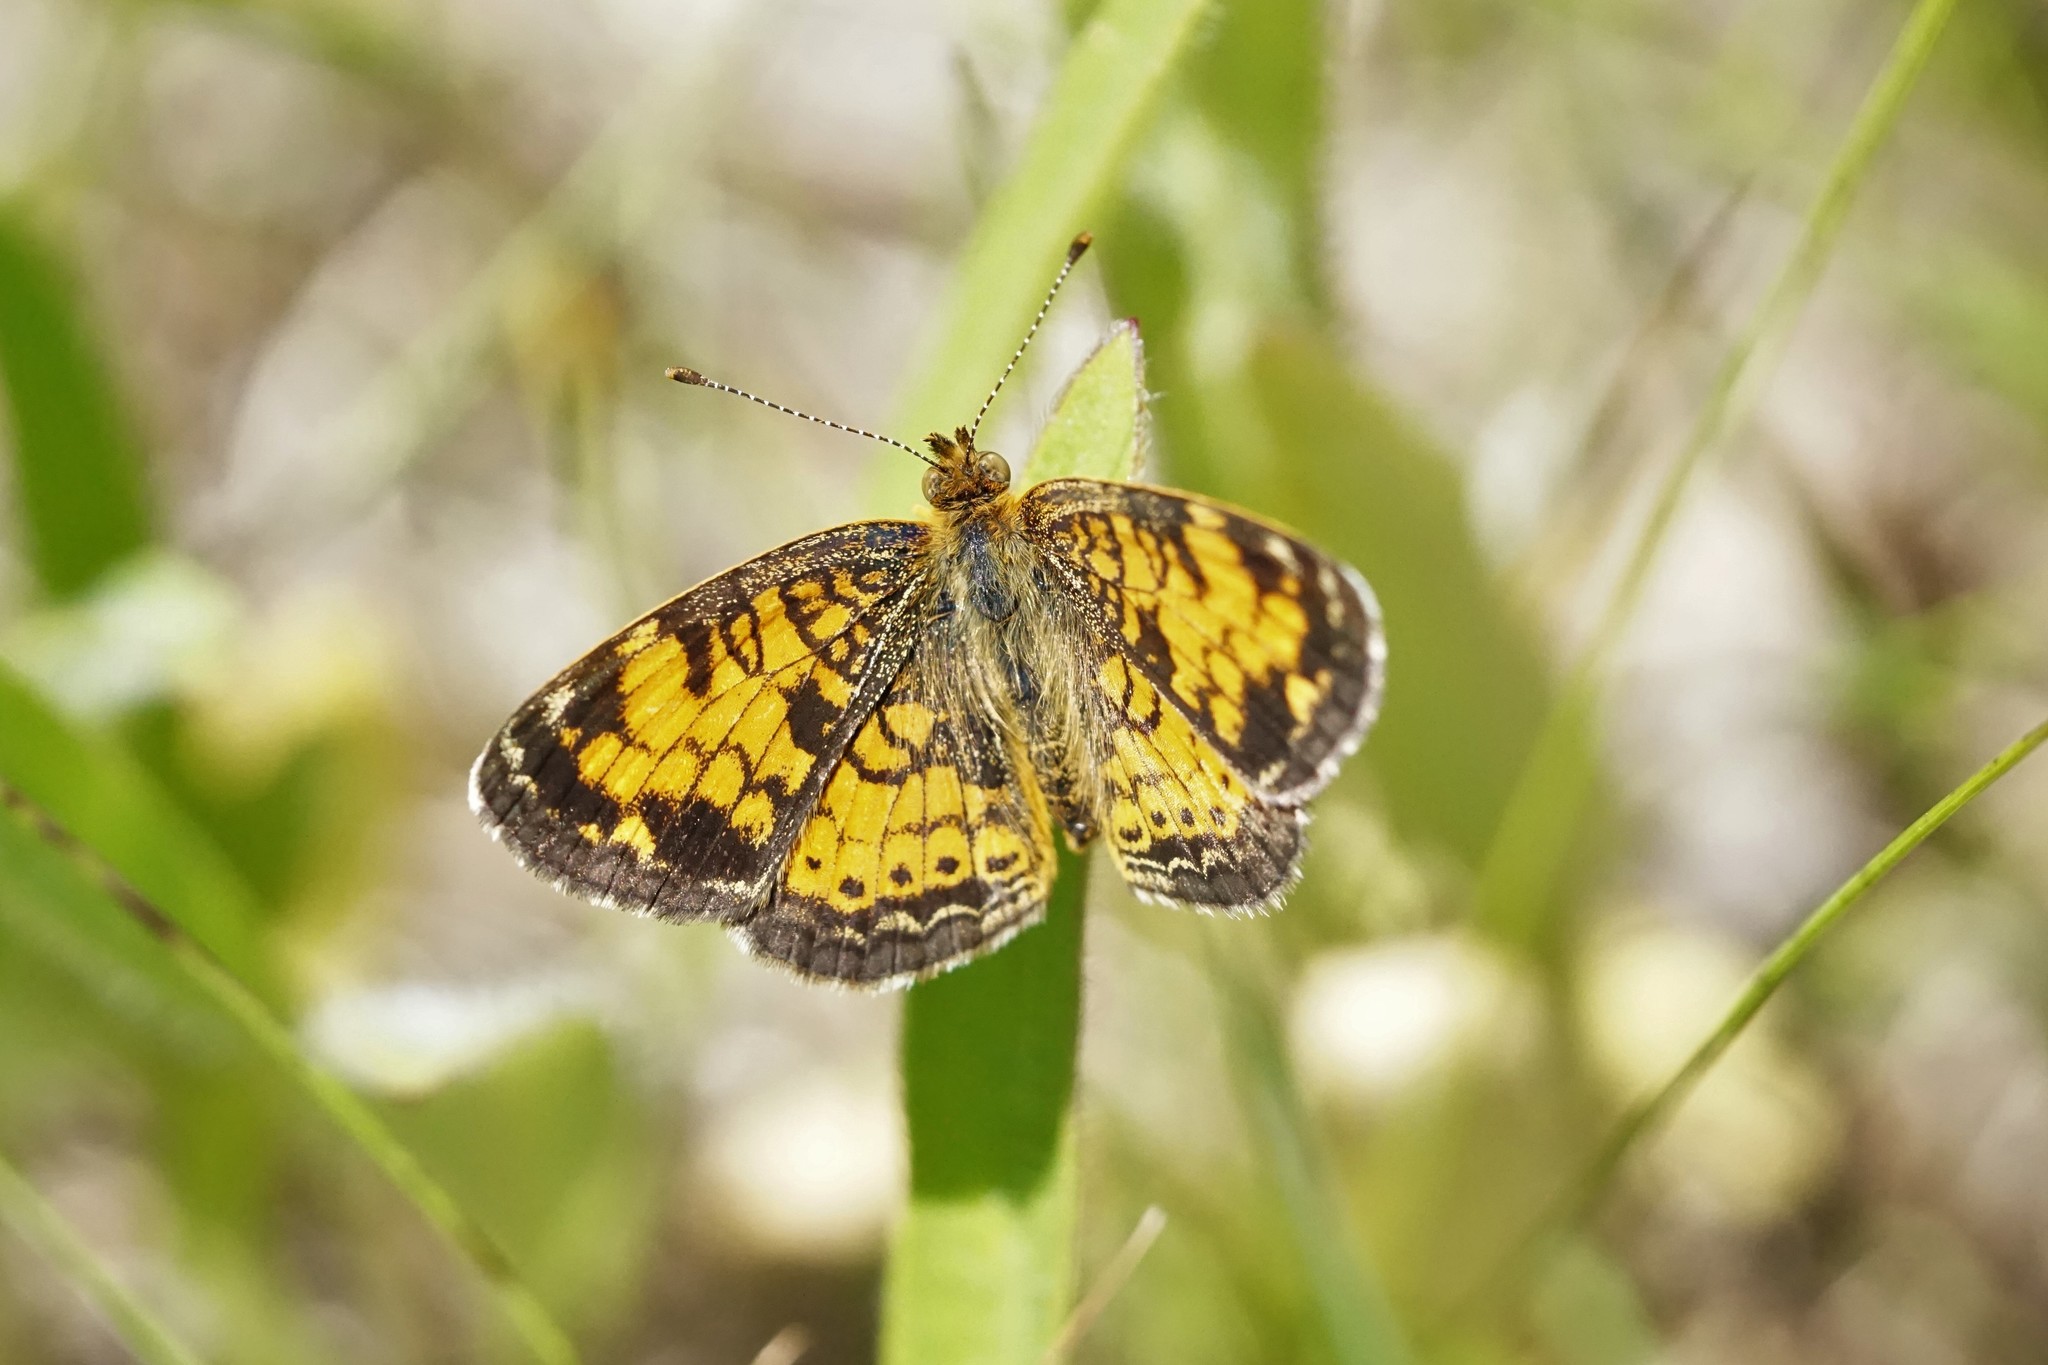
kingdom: Animalia
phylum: Arthropoda
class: Insecta
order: Lepidoptera
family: Nymphalidae
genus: Phyciodes
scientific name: Phyciodes tharos
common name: Pearl crescent
